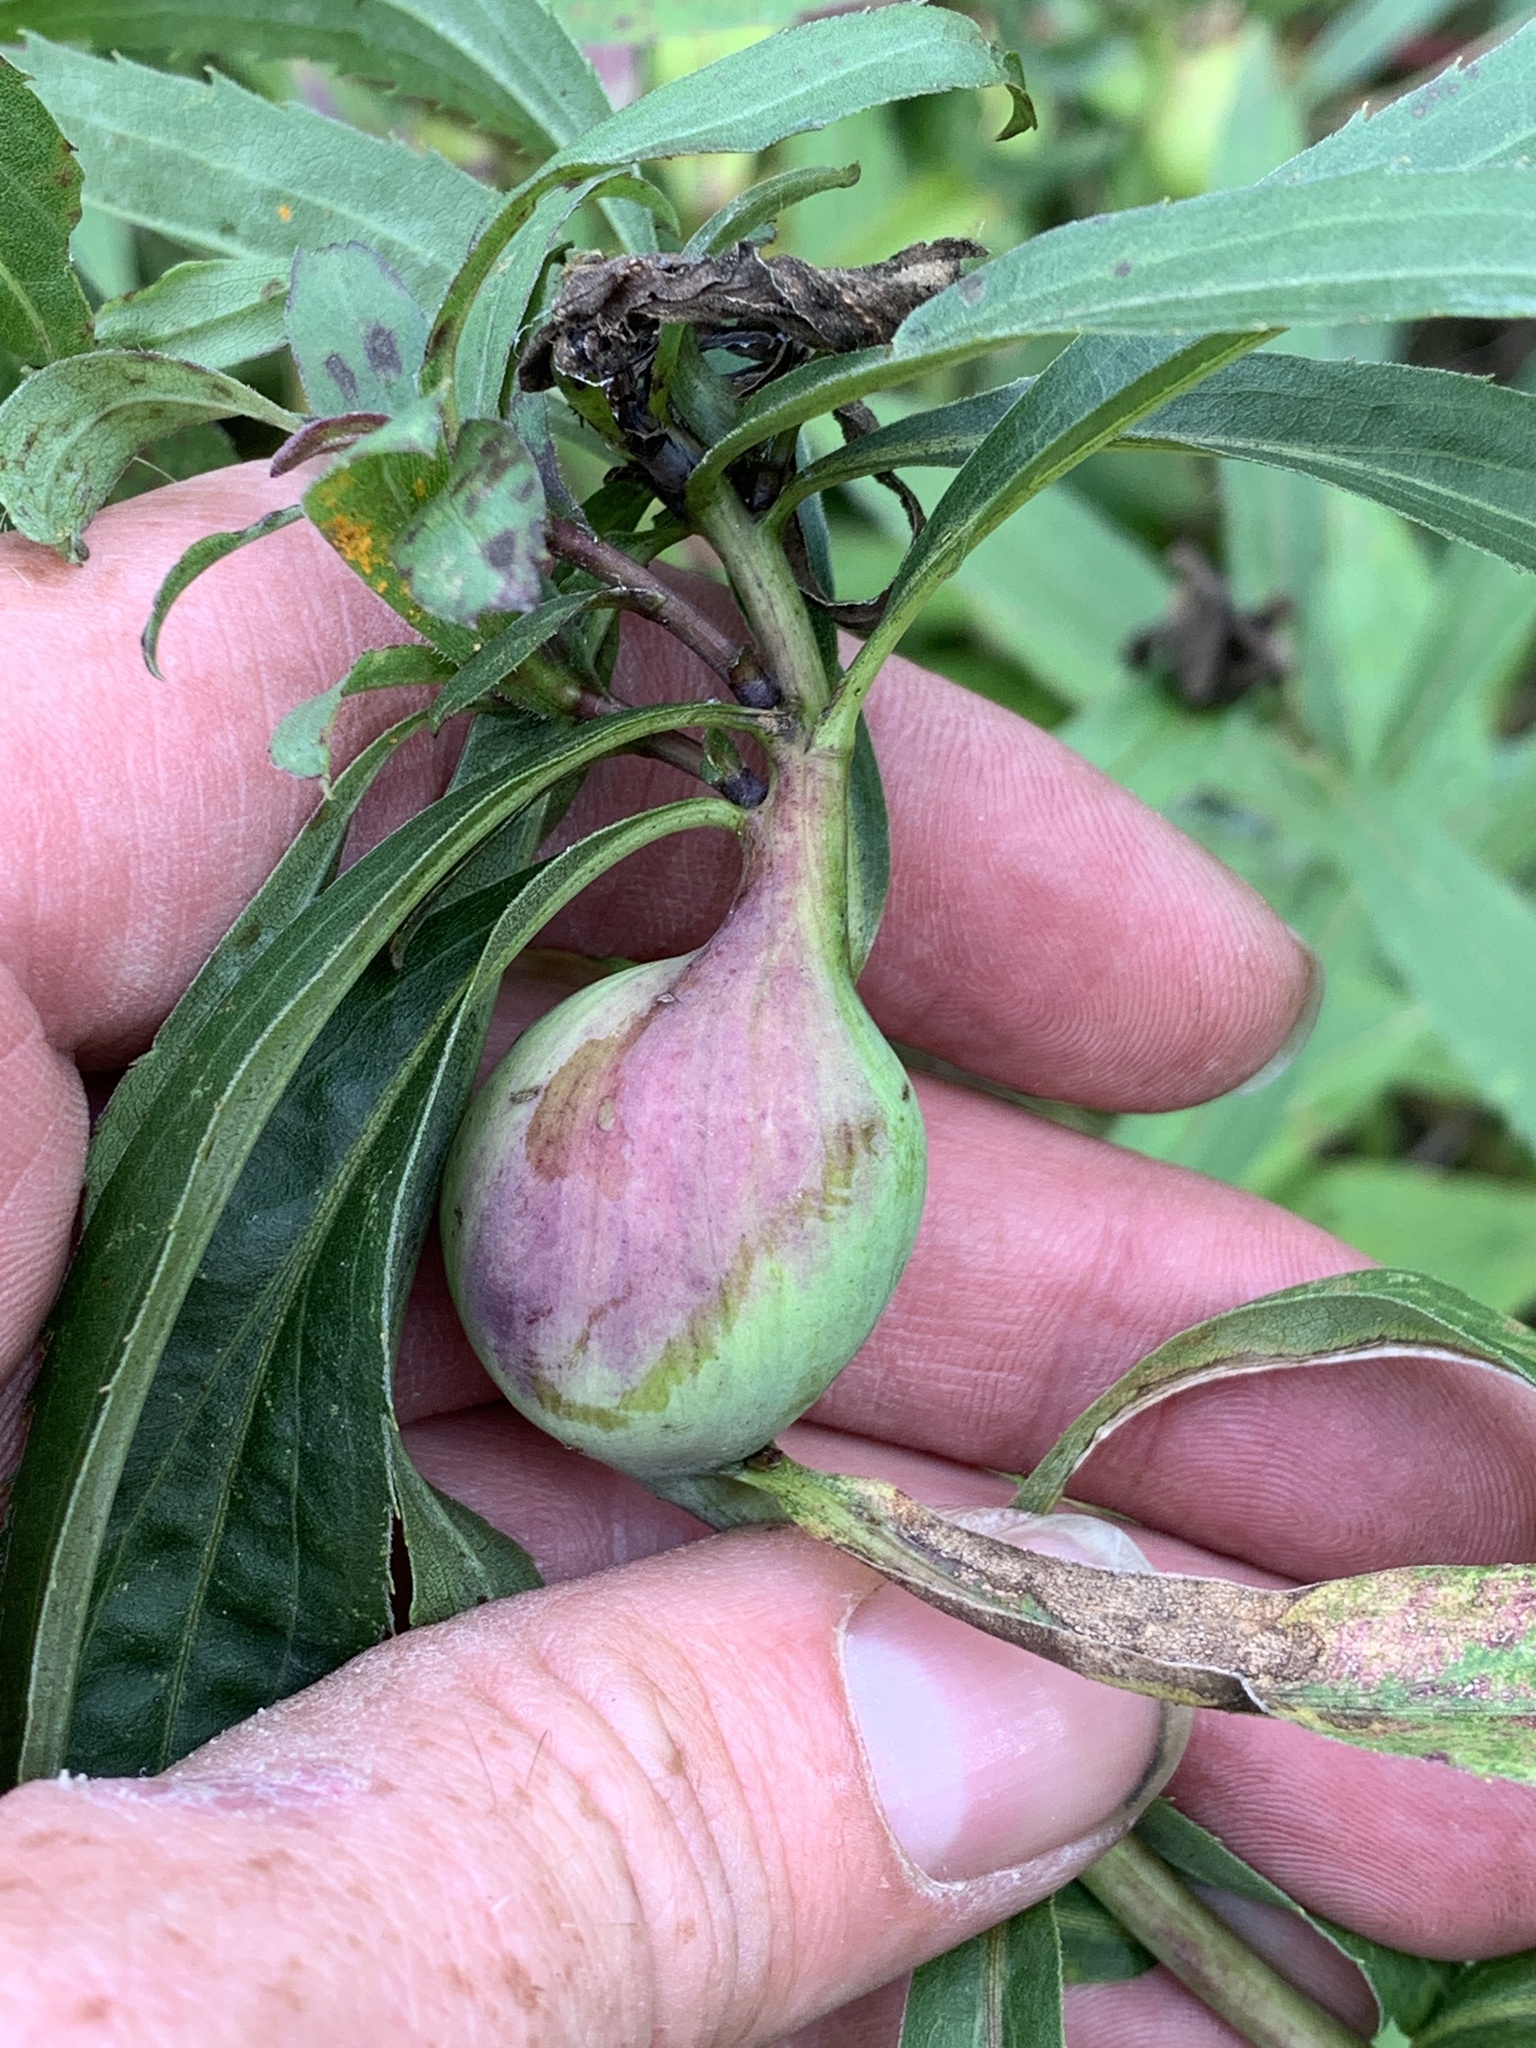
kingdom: Animalia
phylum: Arthropoda
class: Insecta
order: Diptera
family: Tephritidae
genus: Eurosta
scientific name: Eurosta solidaginis
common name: Goldenrod gall fly
